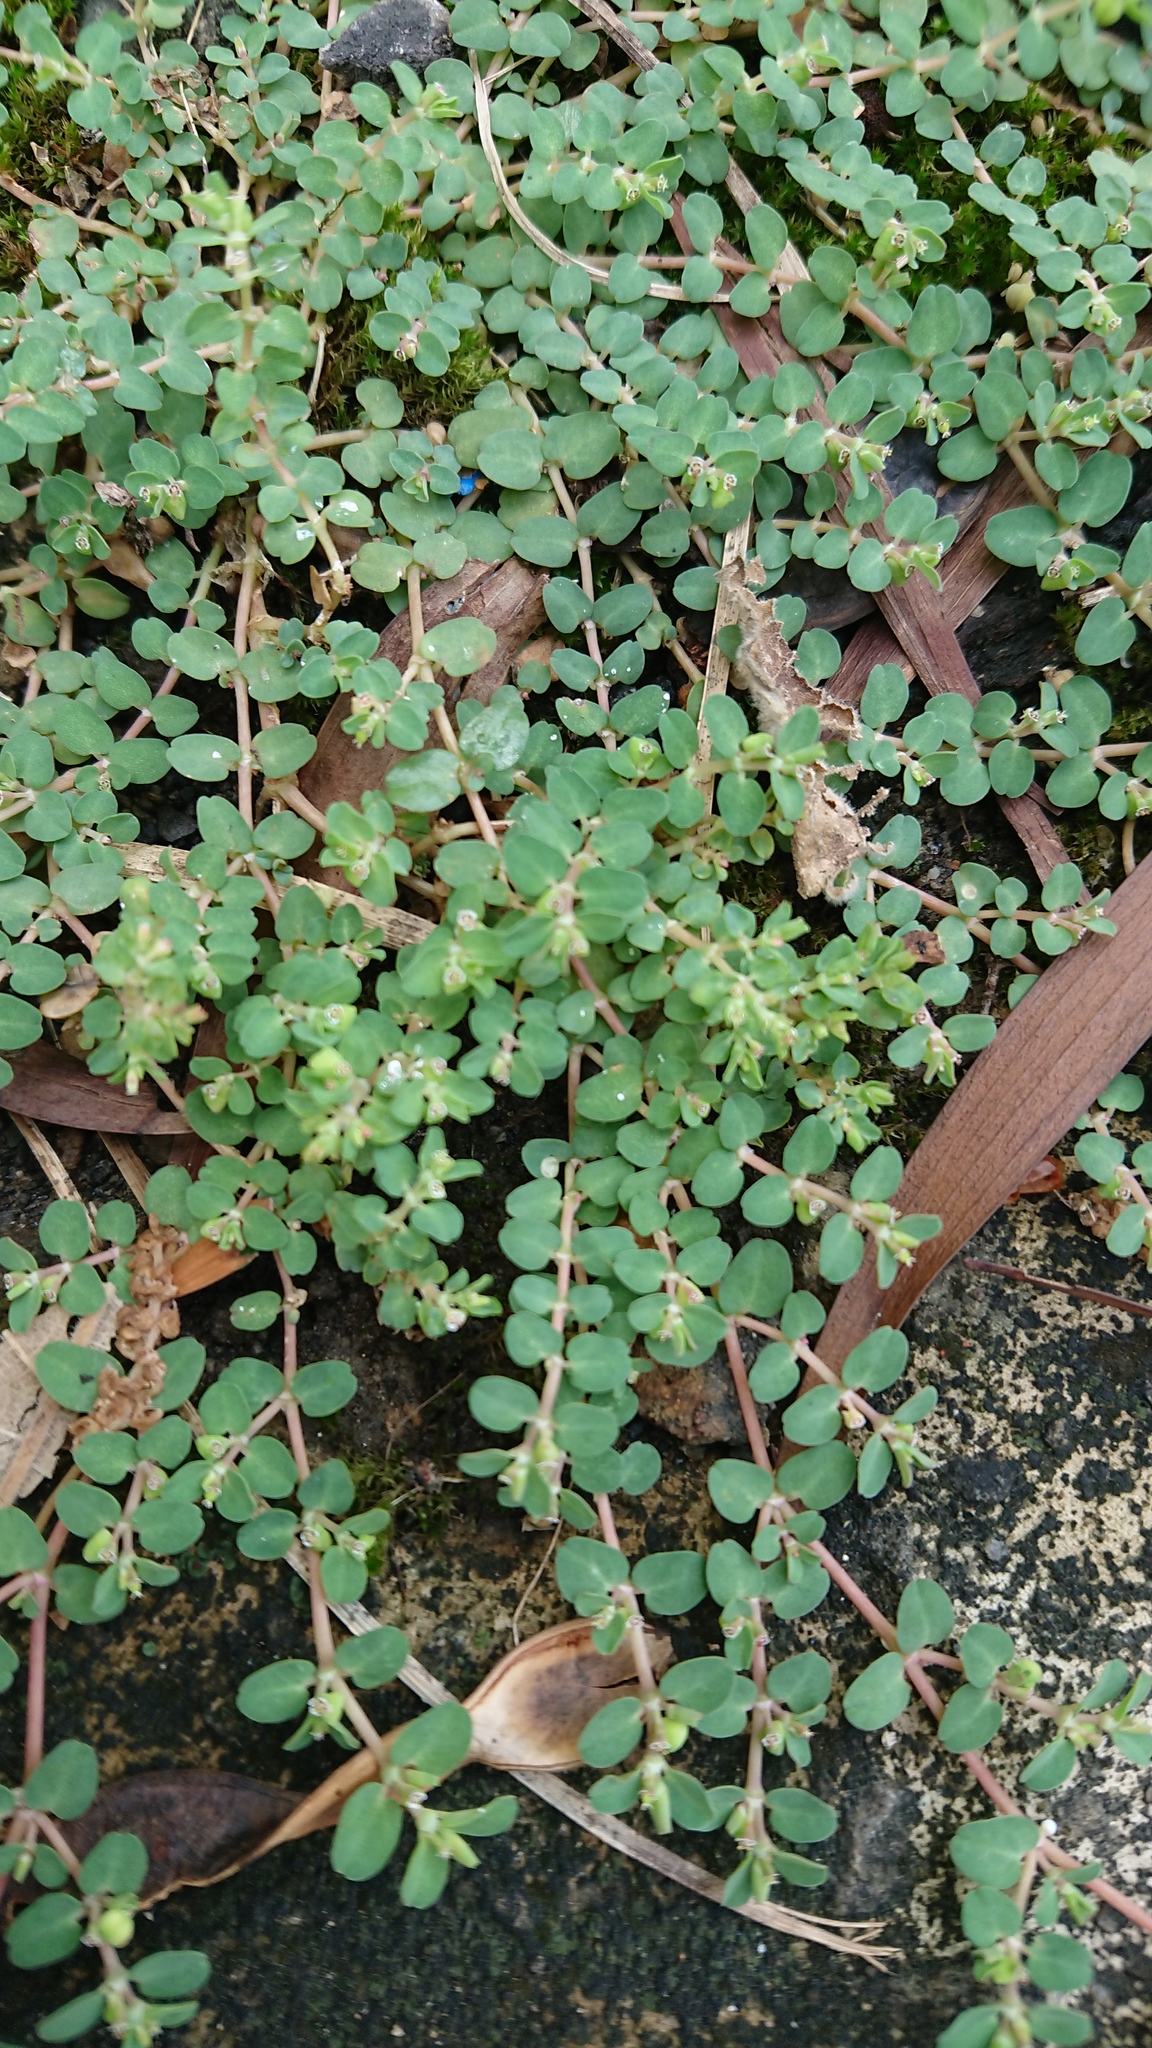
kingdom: Plantae
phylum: Tracheophyta
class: Magnoliopsida
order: Malpighiales
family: Euphorbiaceae
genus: Euphorbia
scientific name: Euphorbia serpens
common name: Matted sandmat
